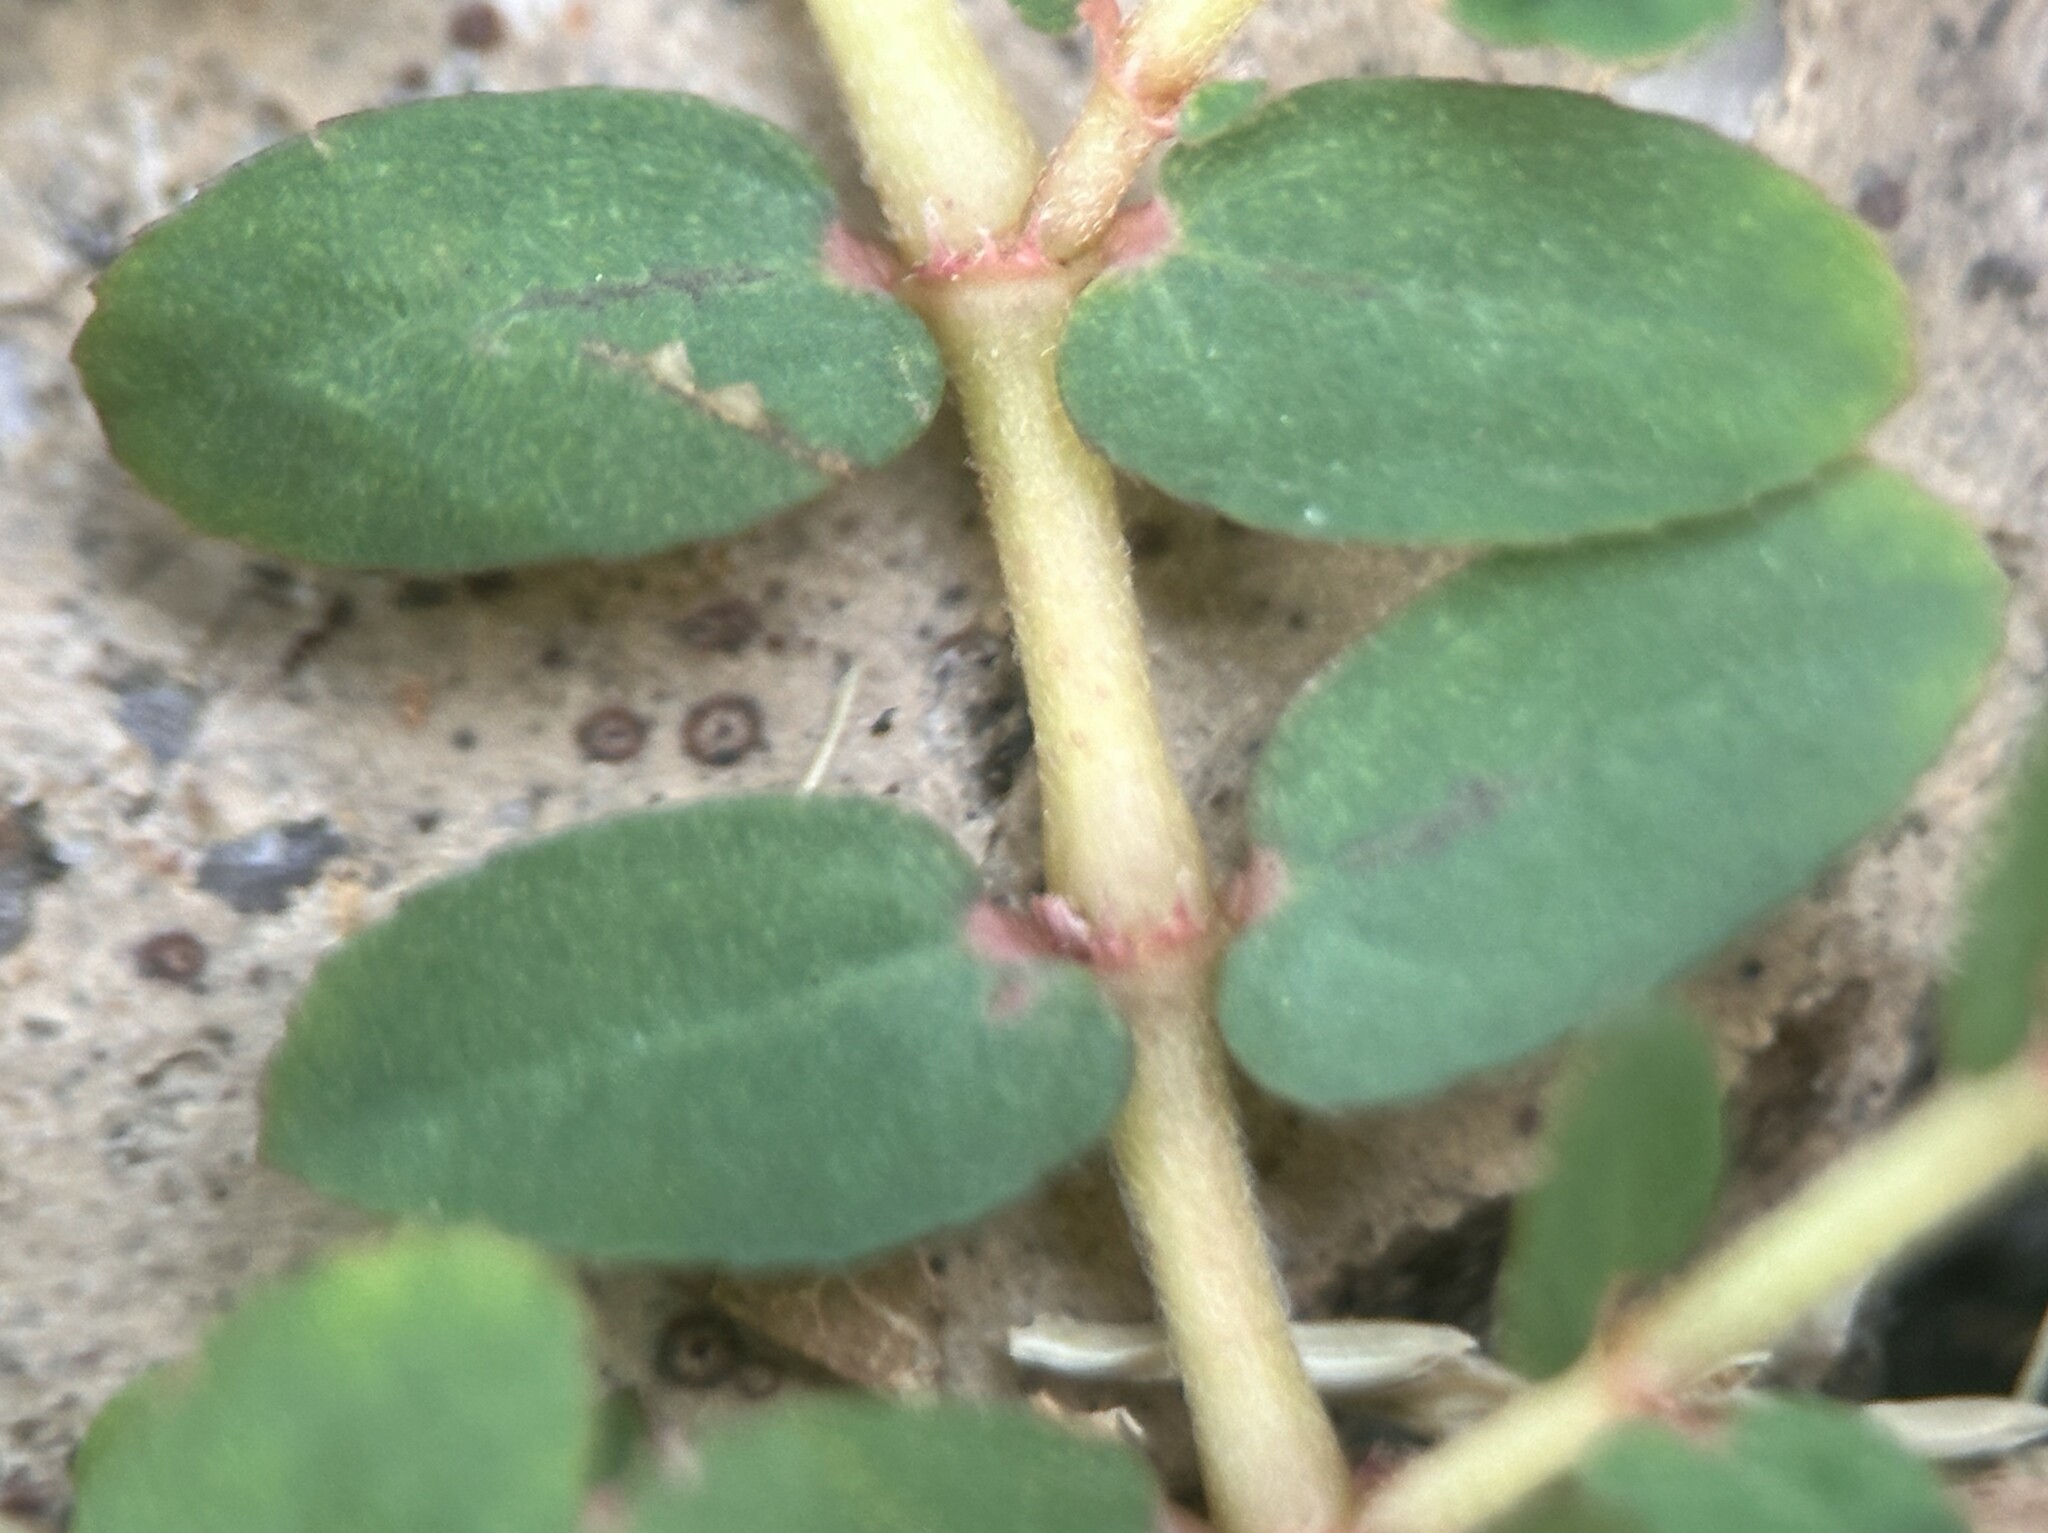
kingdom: Plantae
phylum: Tracheophyta
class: Magnoliopsida
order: Malpighiales
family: Euphorbiaceae
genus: Euphorbia
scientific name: Euphorbia thymifolia
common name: Gulf sandmat
